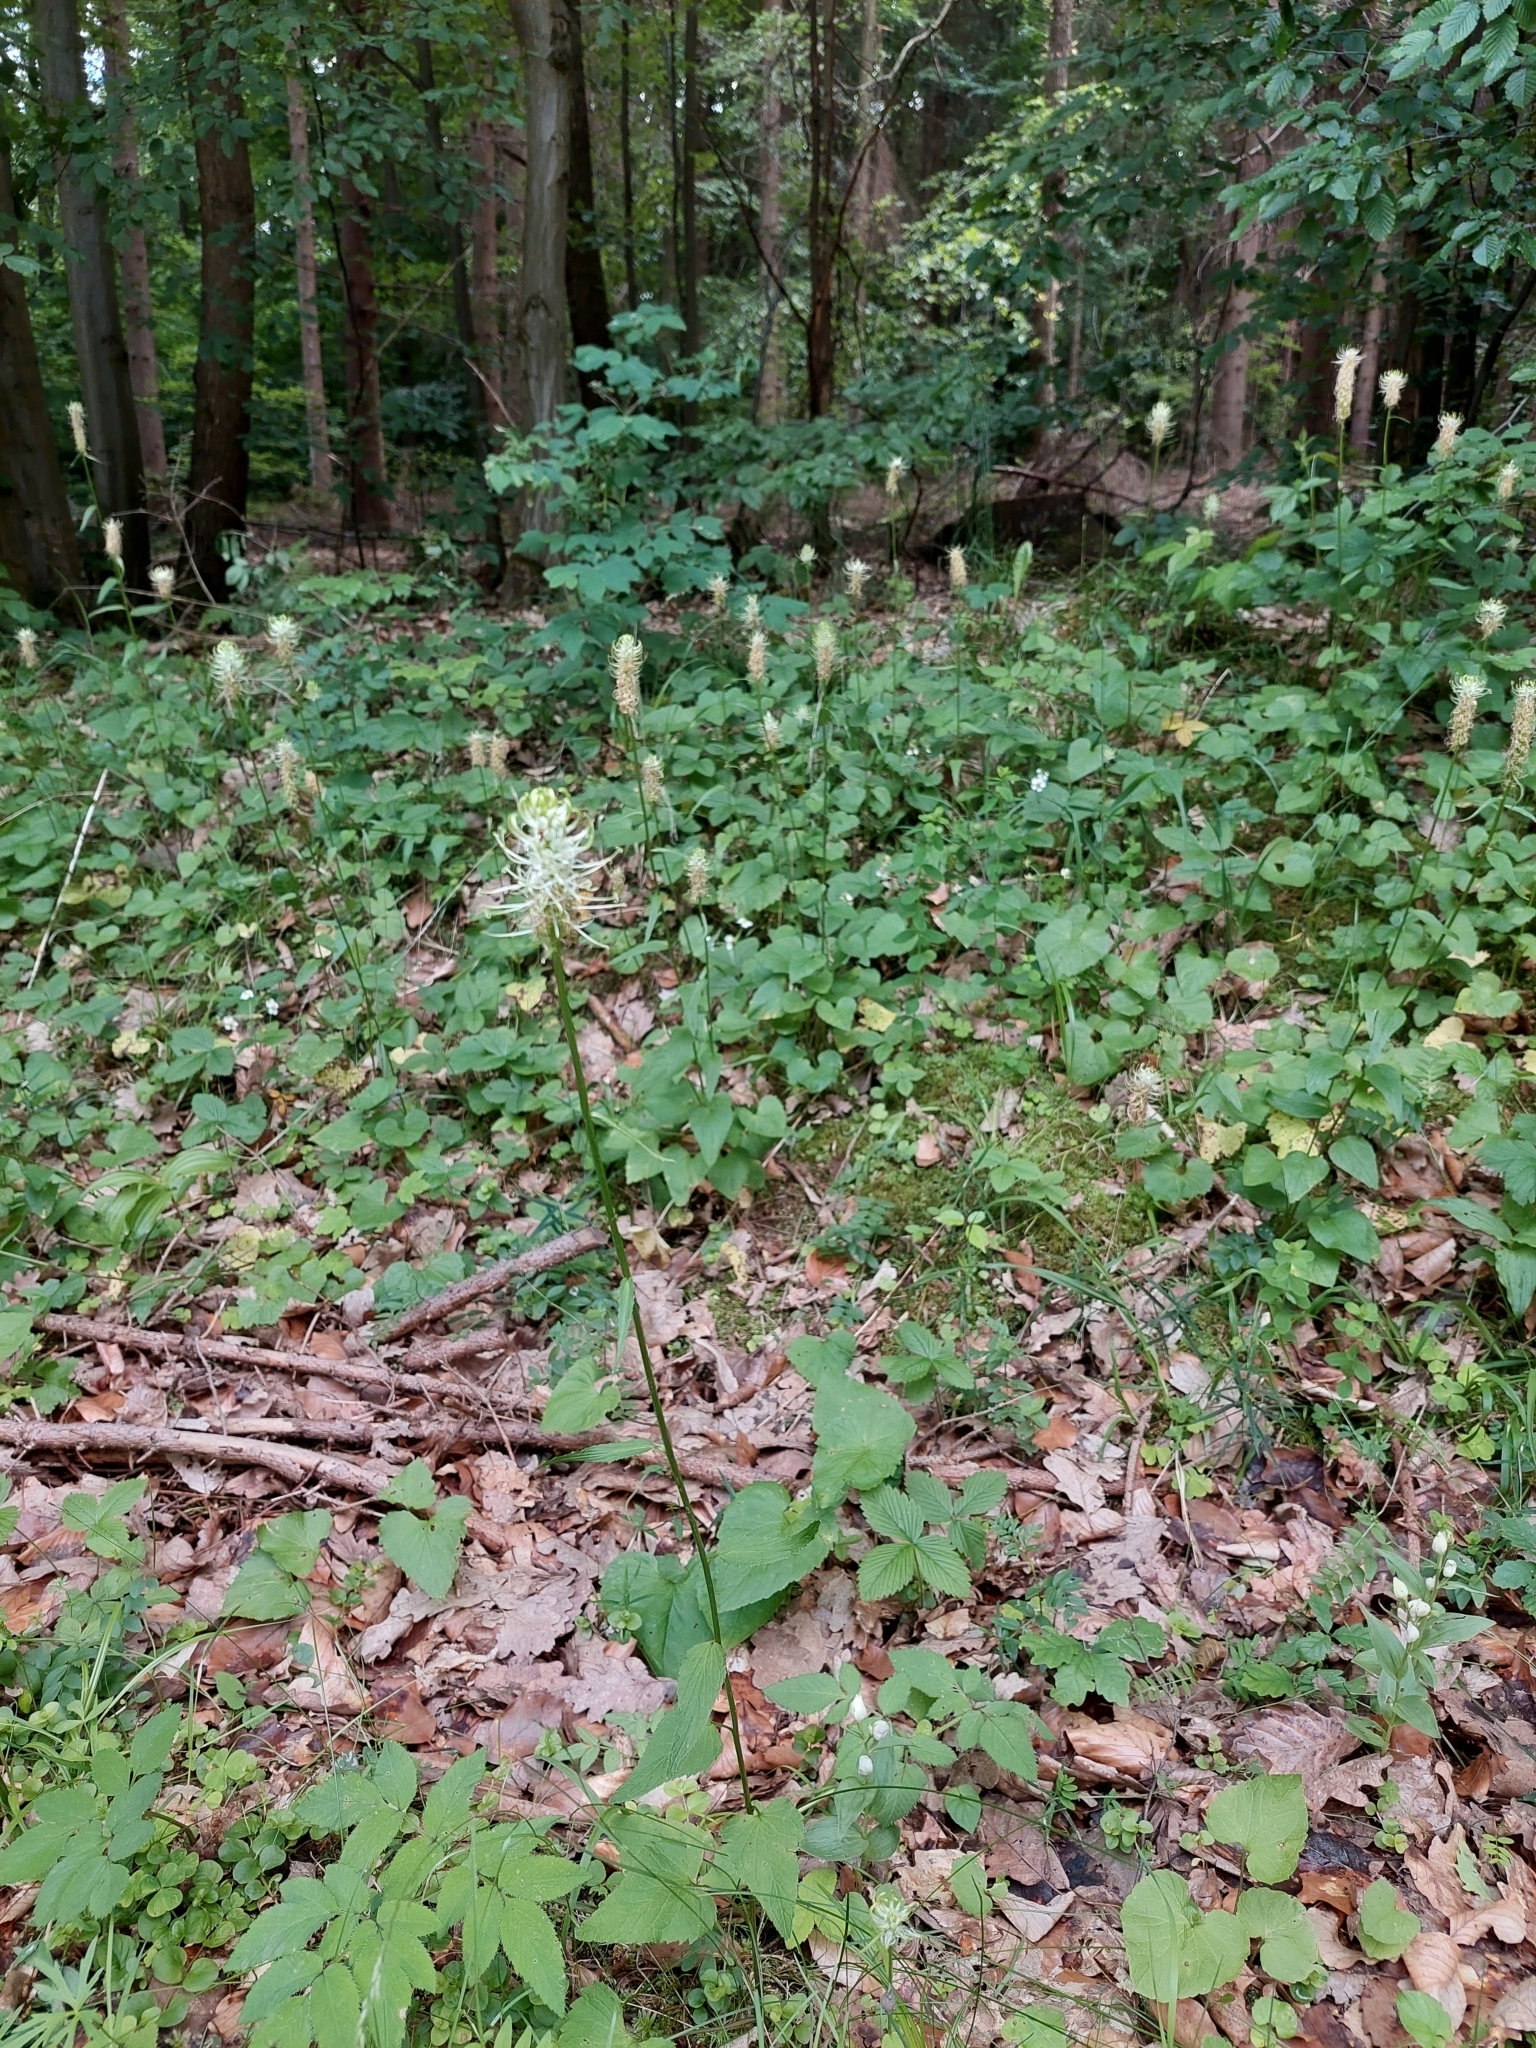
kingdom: Plantae
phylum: Tracheophyta
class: Magnoliopsida
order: Asterales
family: Campanulaceae
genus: Phyteuma
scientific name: Phyteuma spicatum
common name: Spiked rampion
